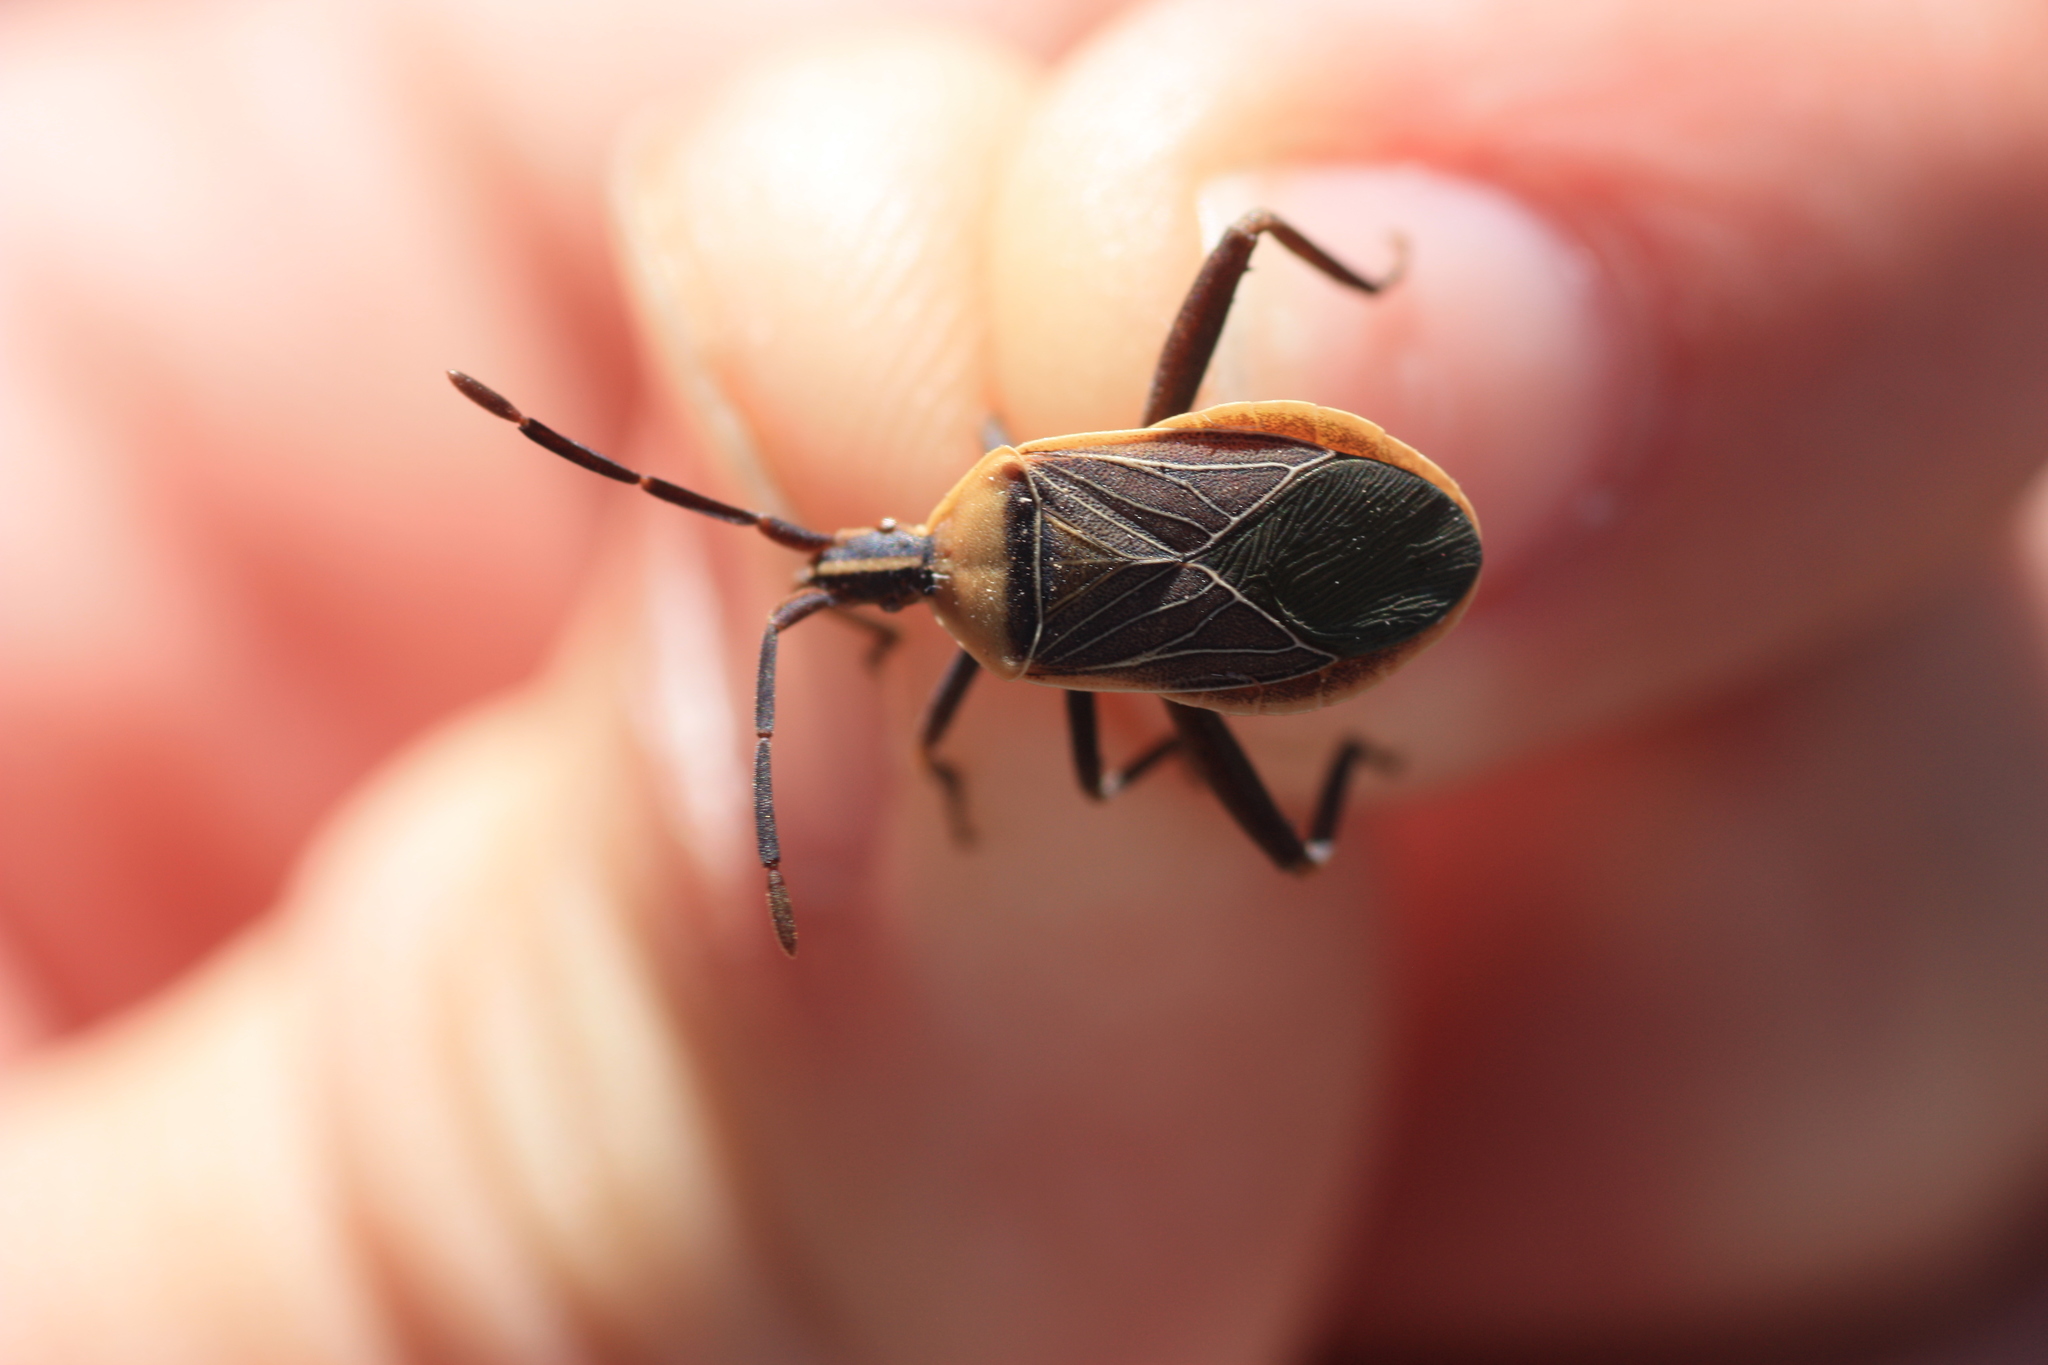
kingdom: Animalia
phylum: Arthropoda
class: Insecta
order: Hemiptera
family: Coreidae
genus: Chelinidea
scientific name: Chelinidea vittiger
